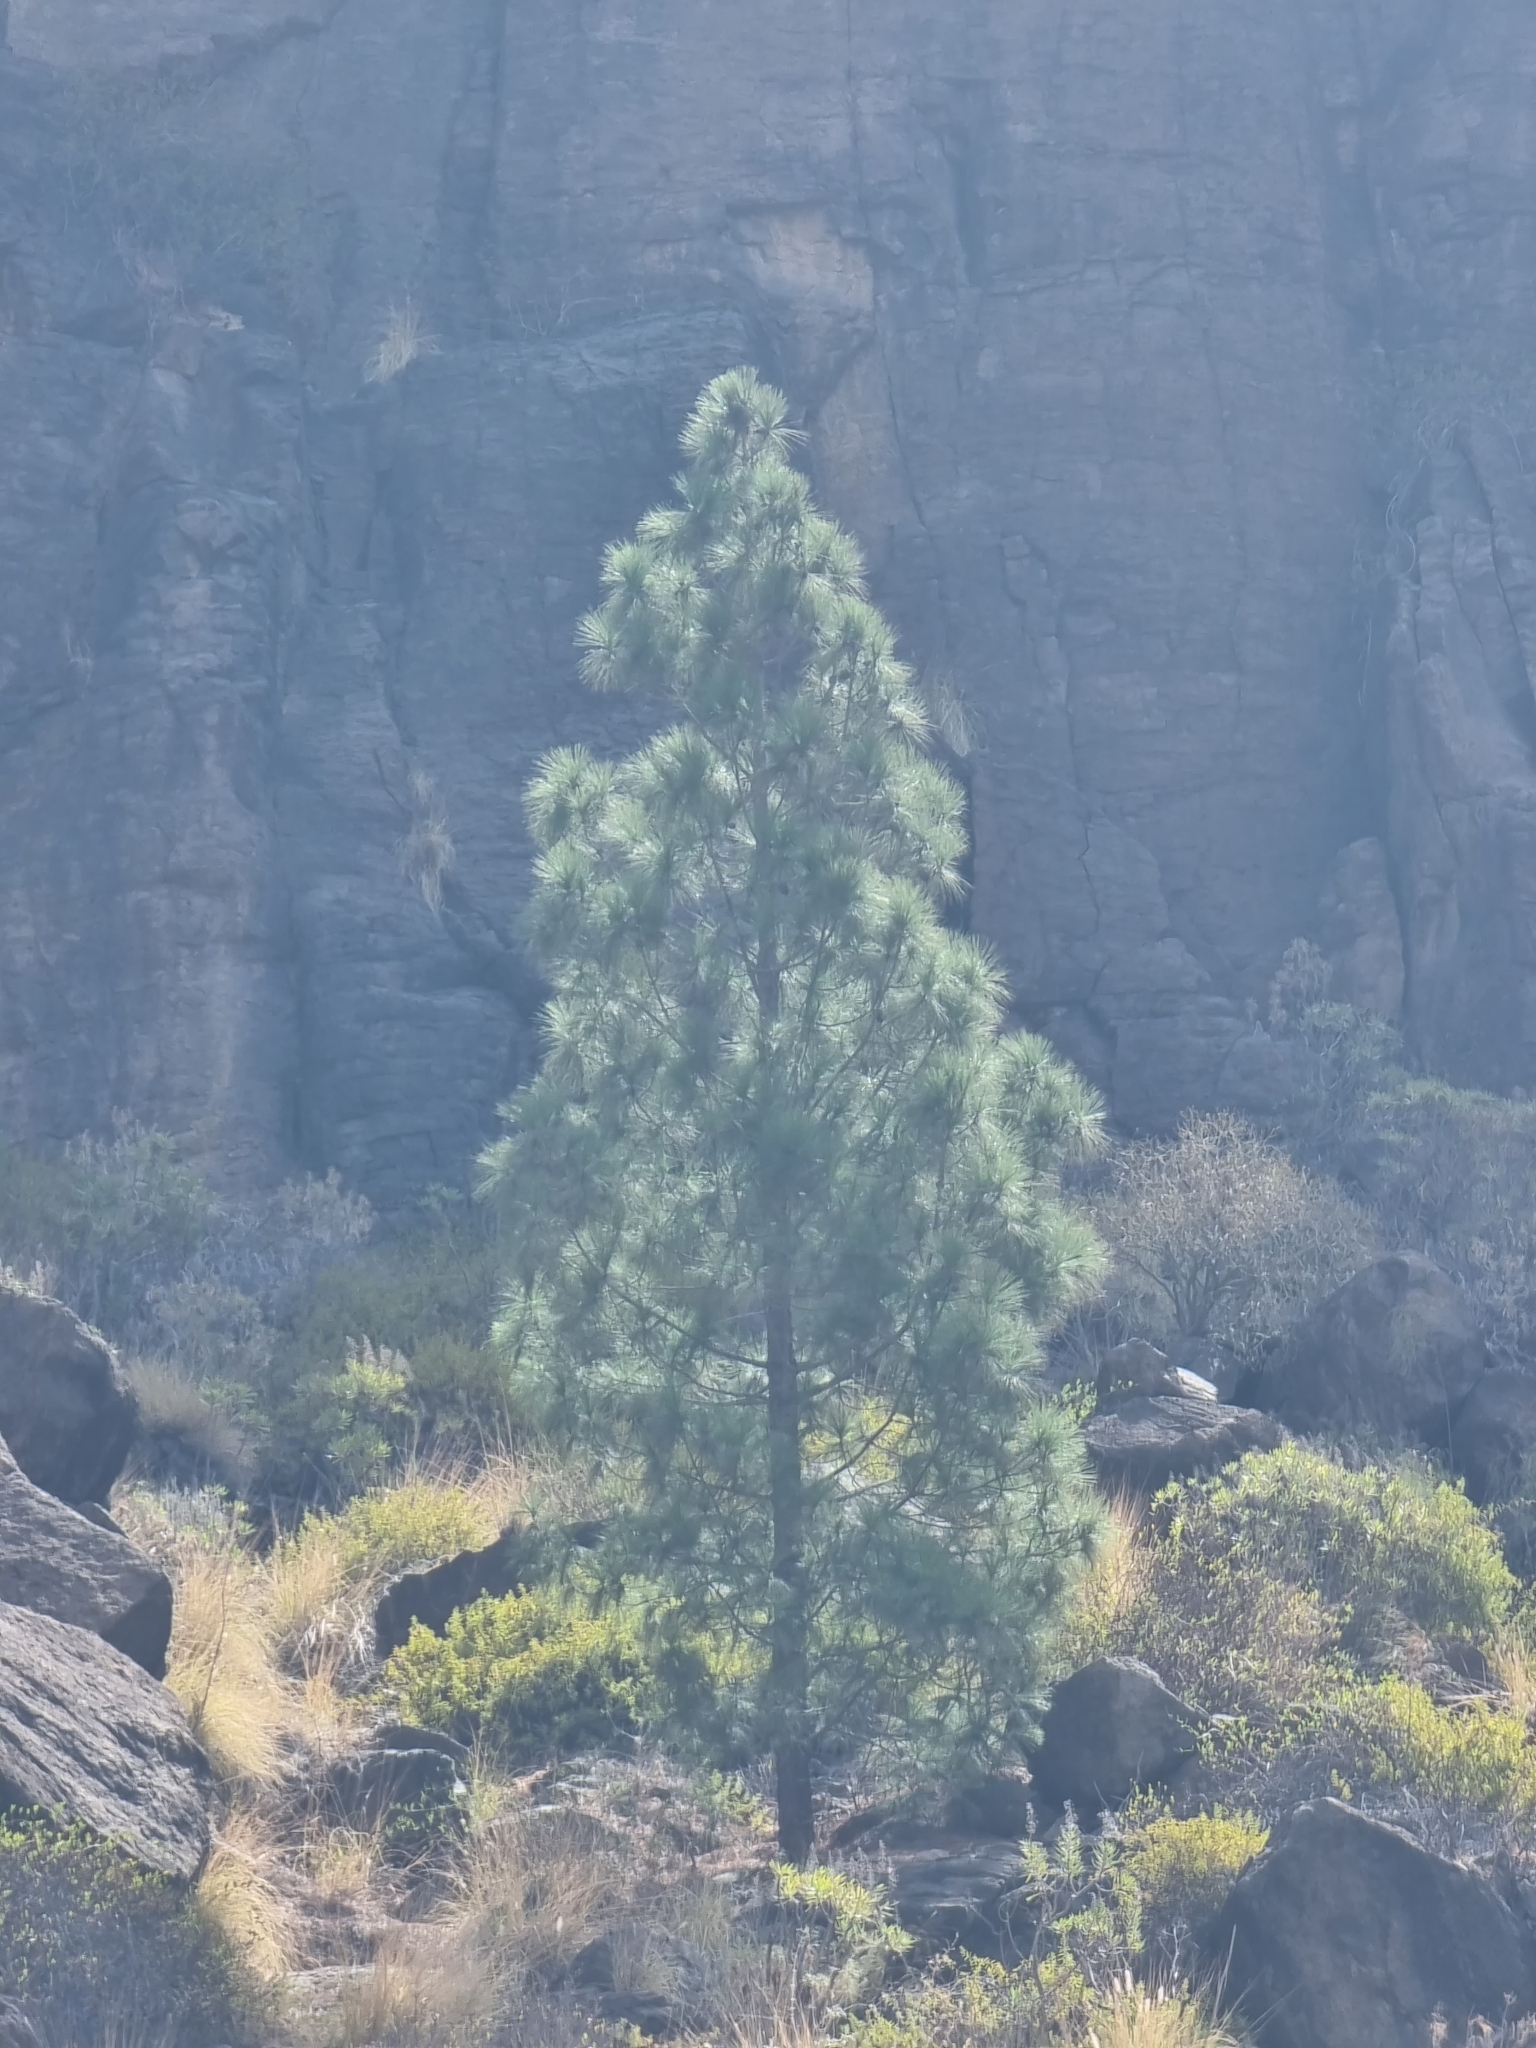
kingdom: Plantae
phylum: Tracheophyta
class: Pinopsida
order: Pinales
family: Pinaceae
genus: Pinus
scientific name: Pinus canariensis
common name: Canary islands pine
